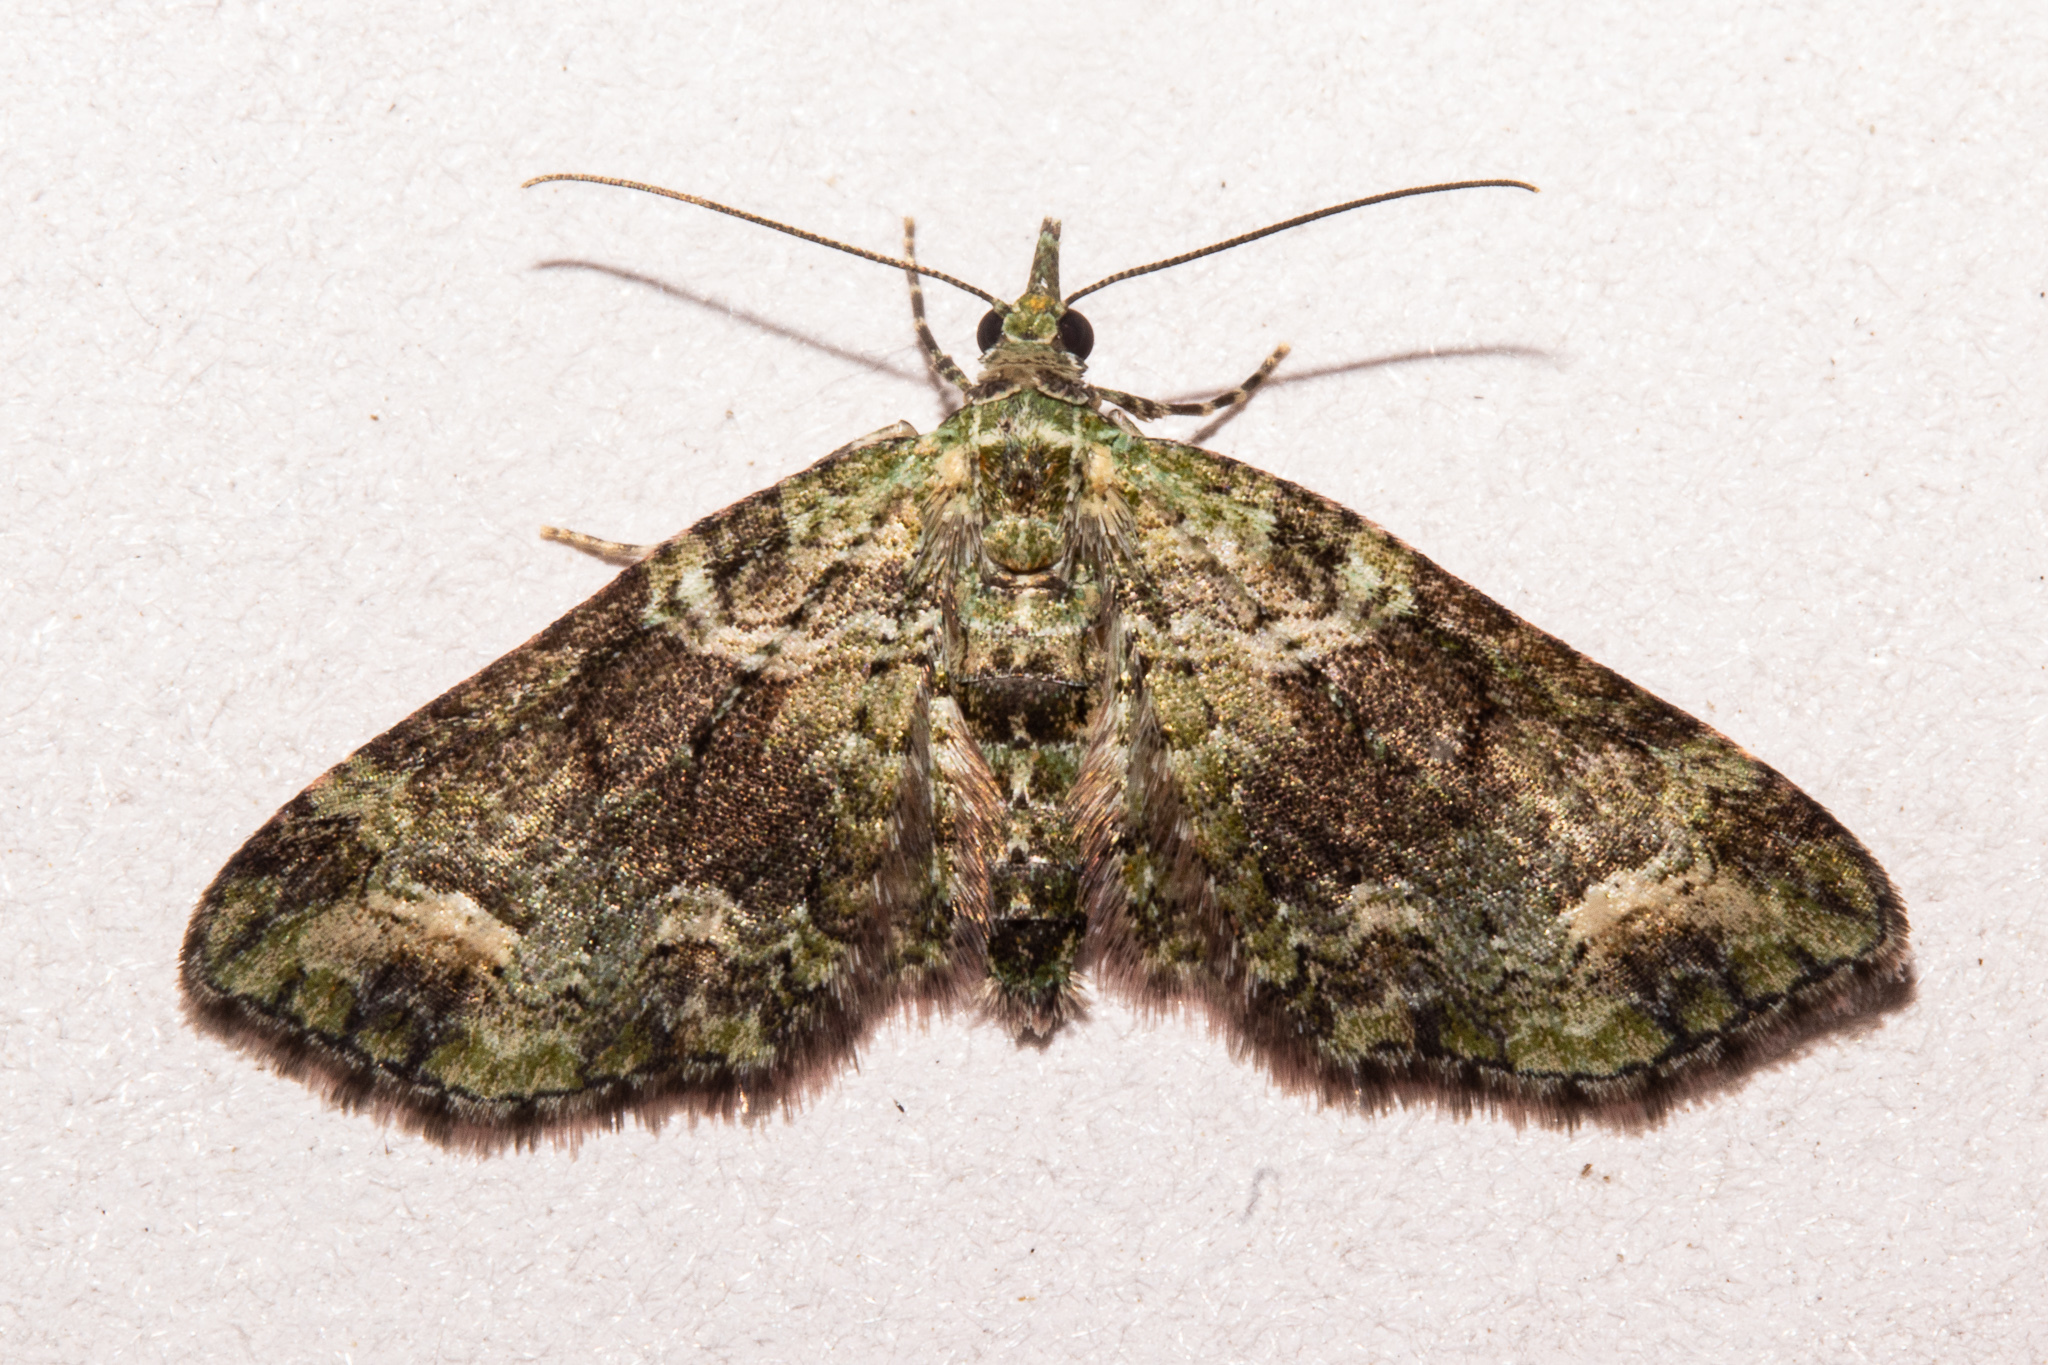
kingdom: Animalia
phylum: Arthropoda
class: Insecta
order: Lepidoptera
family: Geometridae
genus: Idaea
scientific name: Idaea mutanda
